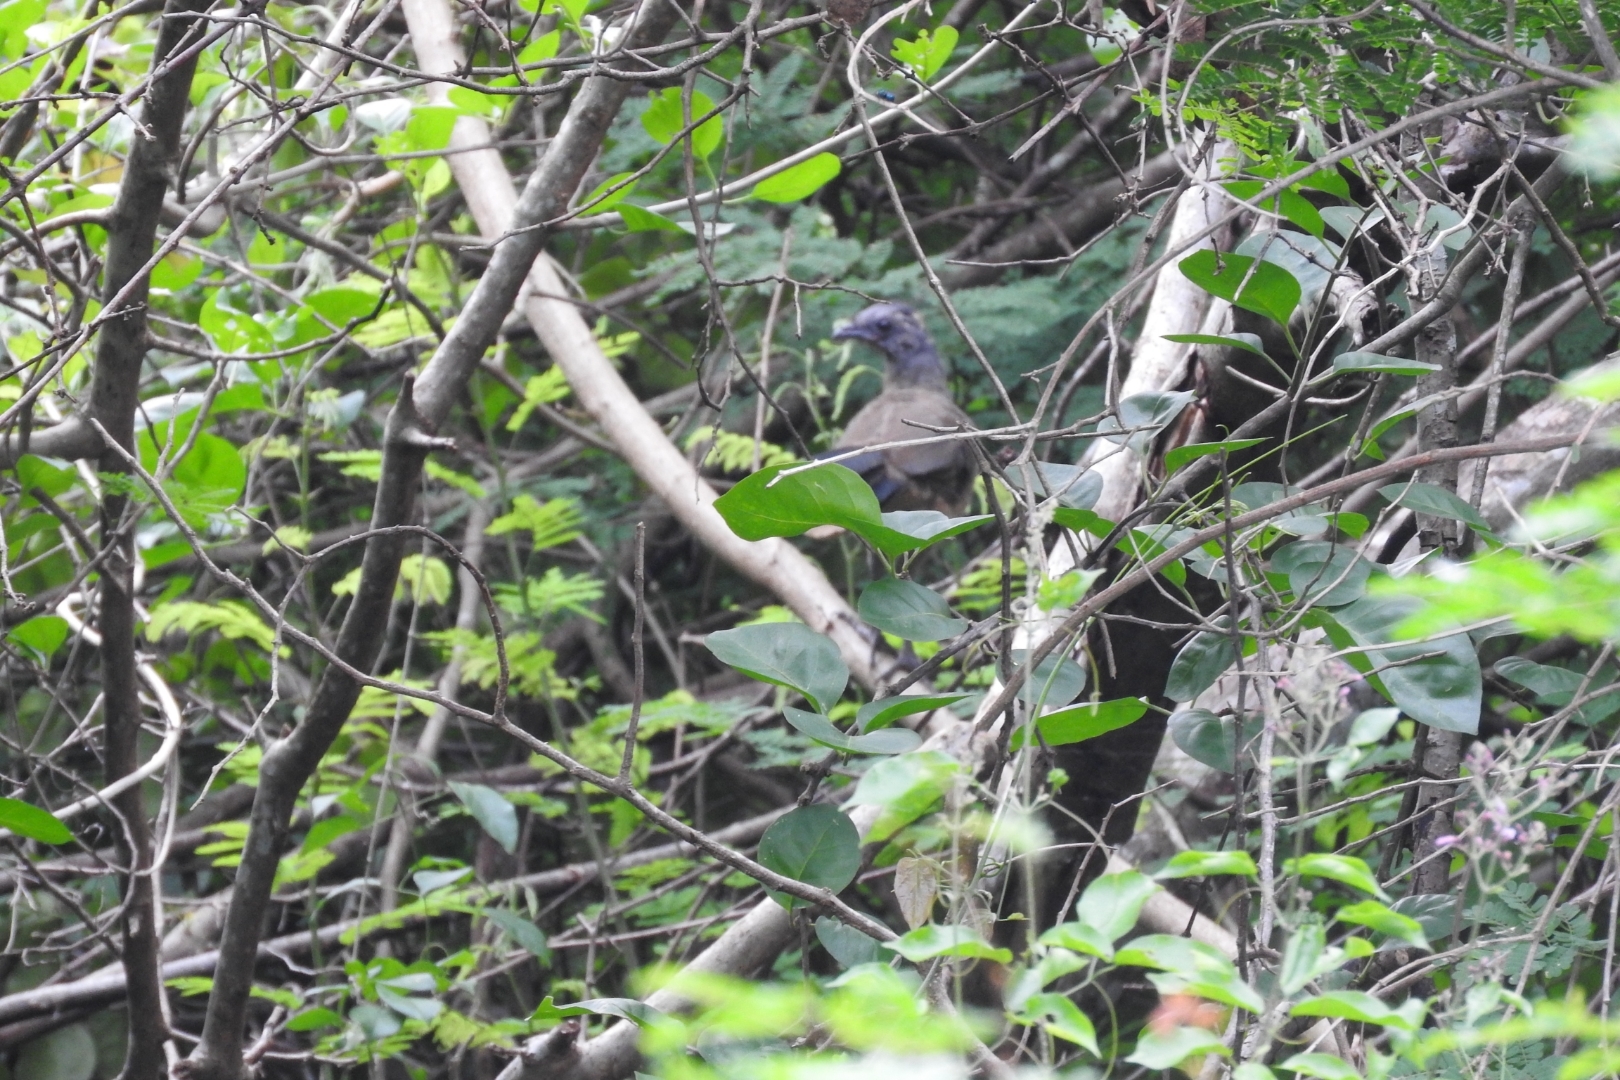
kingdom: Animalia
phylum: Chordata
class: Aves
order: Galliformes
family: Cracidae
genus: Ortalis
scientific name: Ortalis vetula
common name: Plain chachalaca
